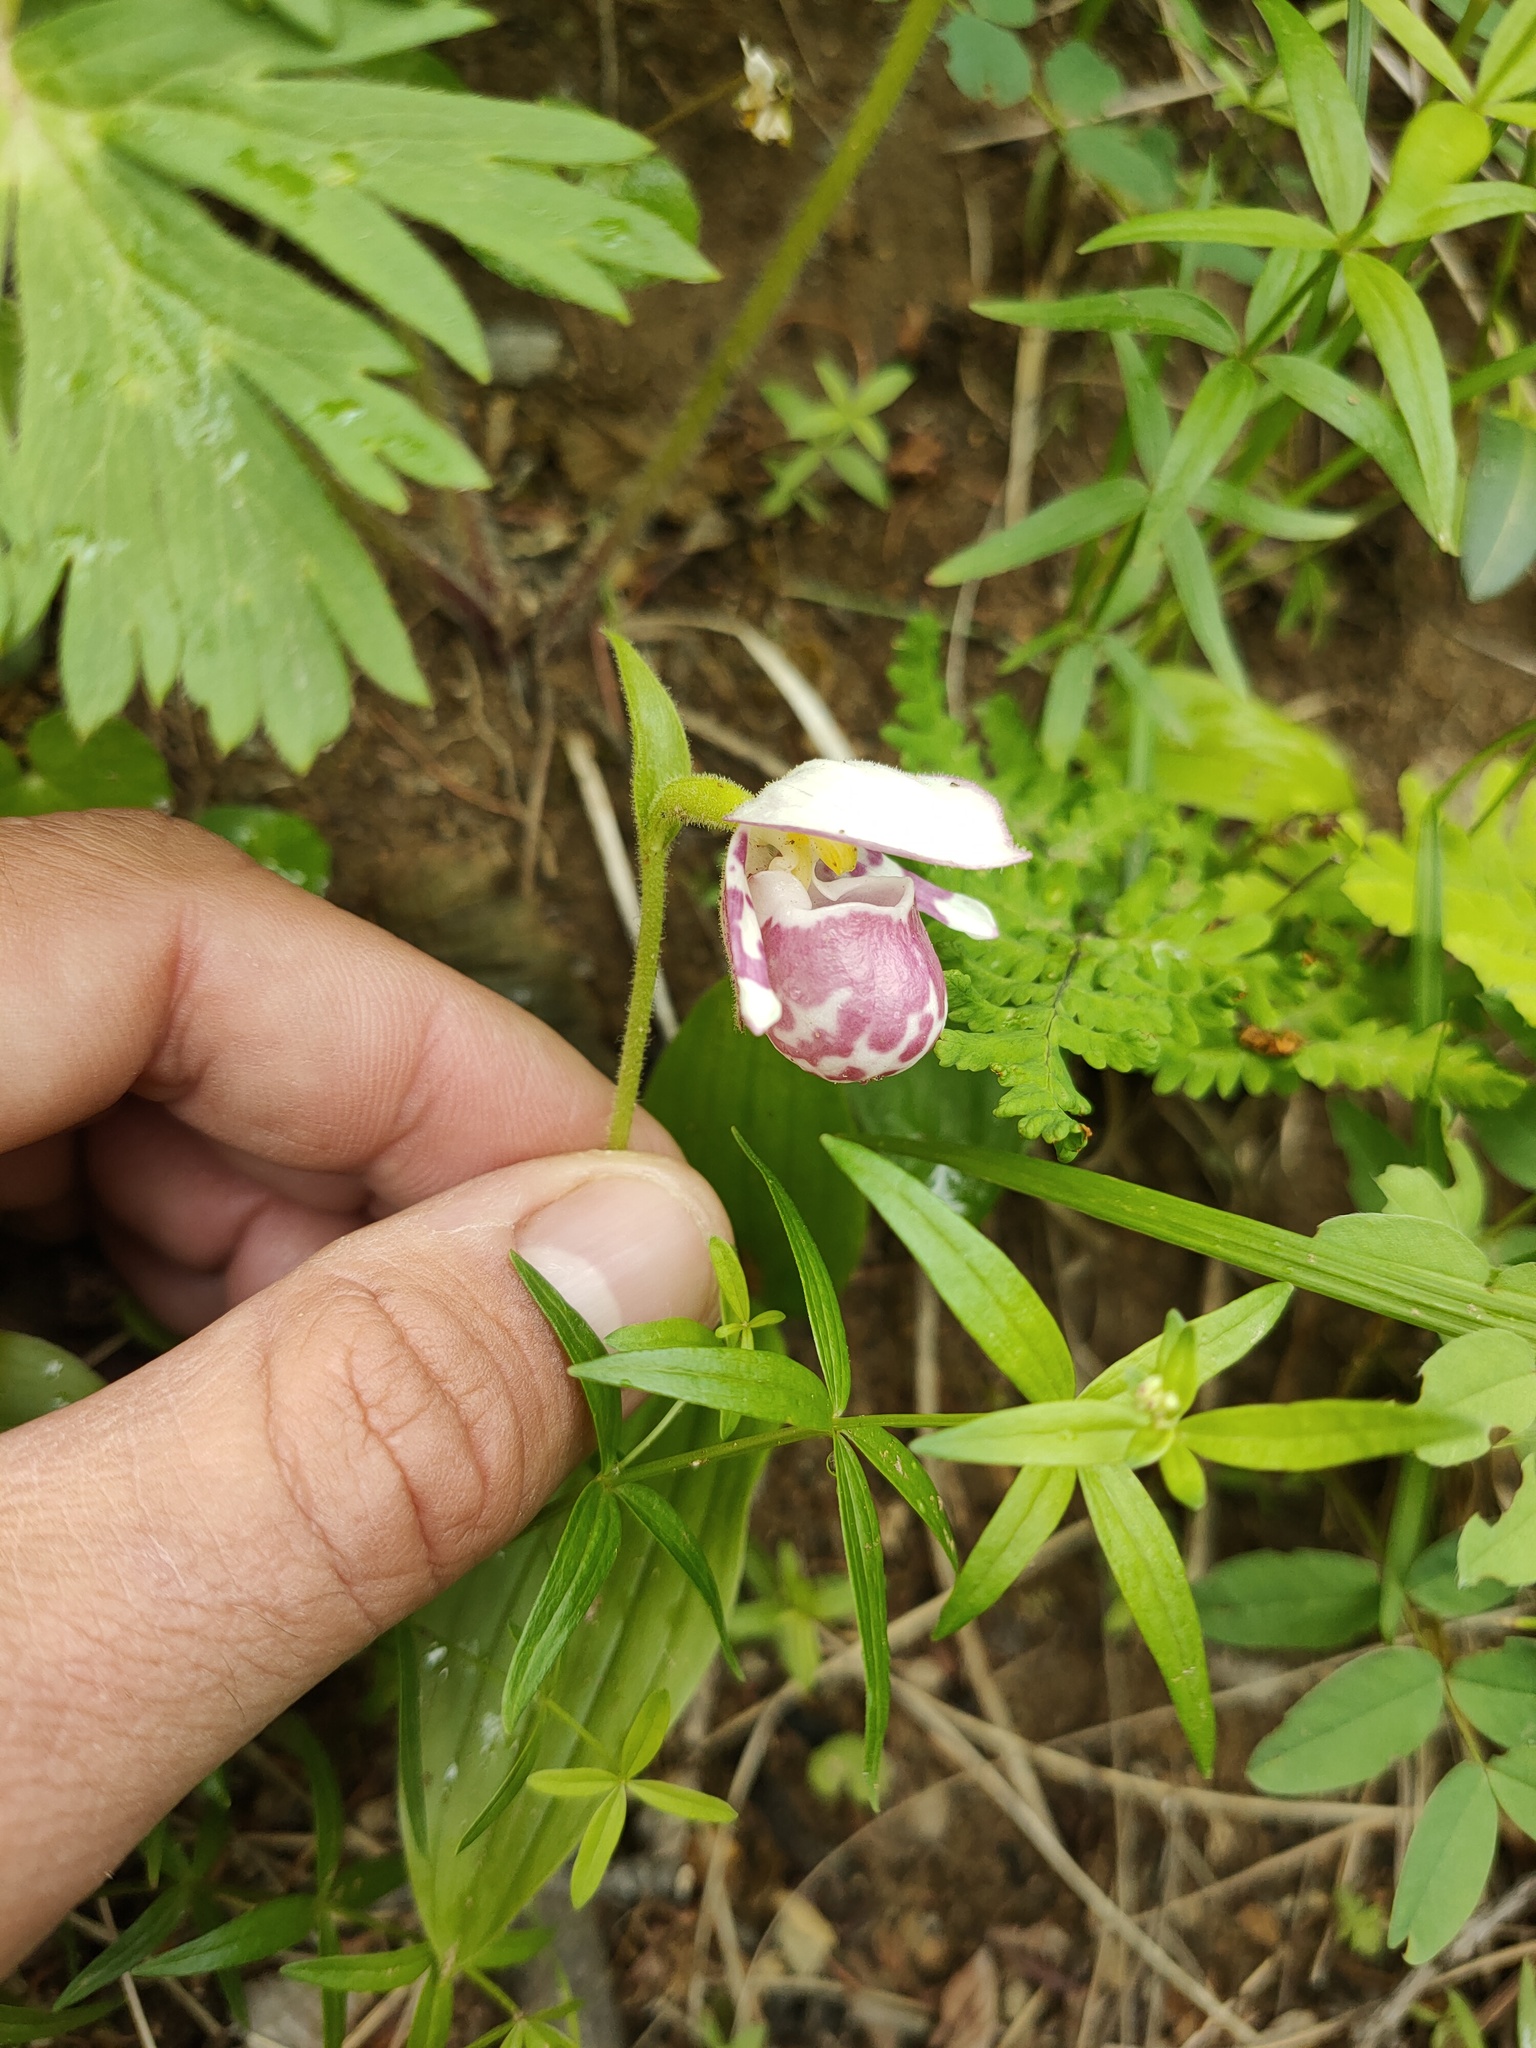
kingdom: Plantae
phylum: Tracheophyta
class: Liliopsida
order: Asparagales
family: Orchidaceae
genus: Cypripedium
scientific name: Cypripedium guttatum
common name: Pink lady slipper
